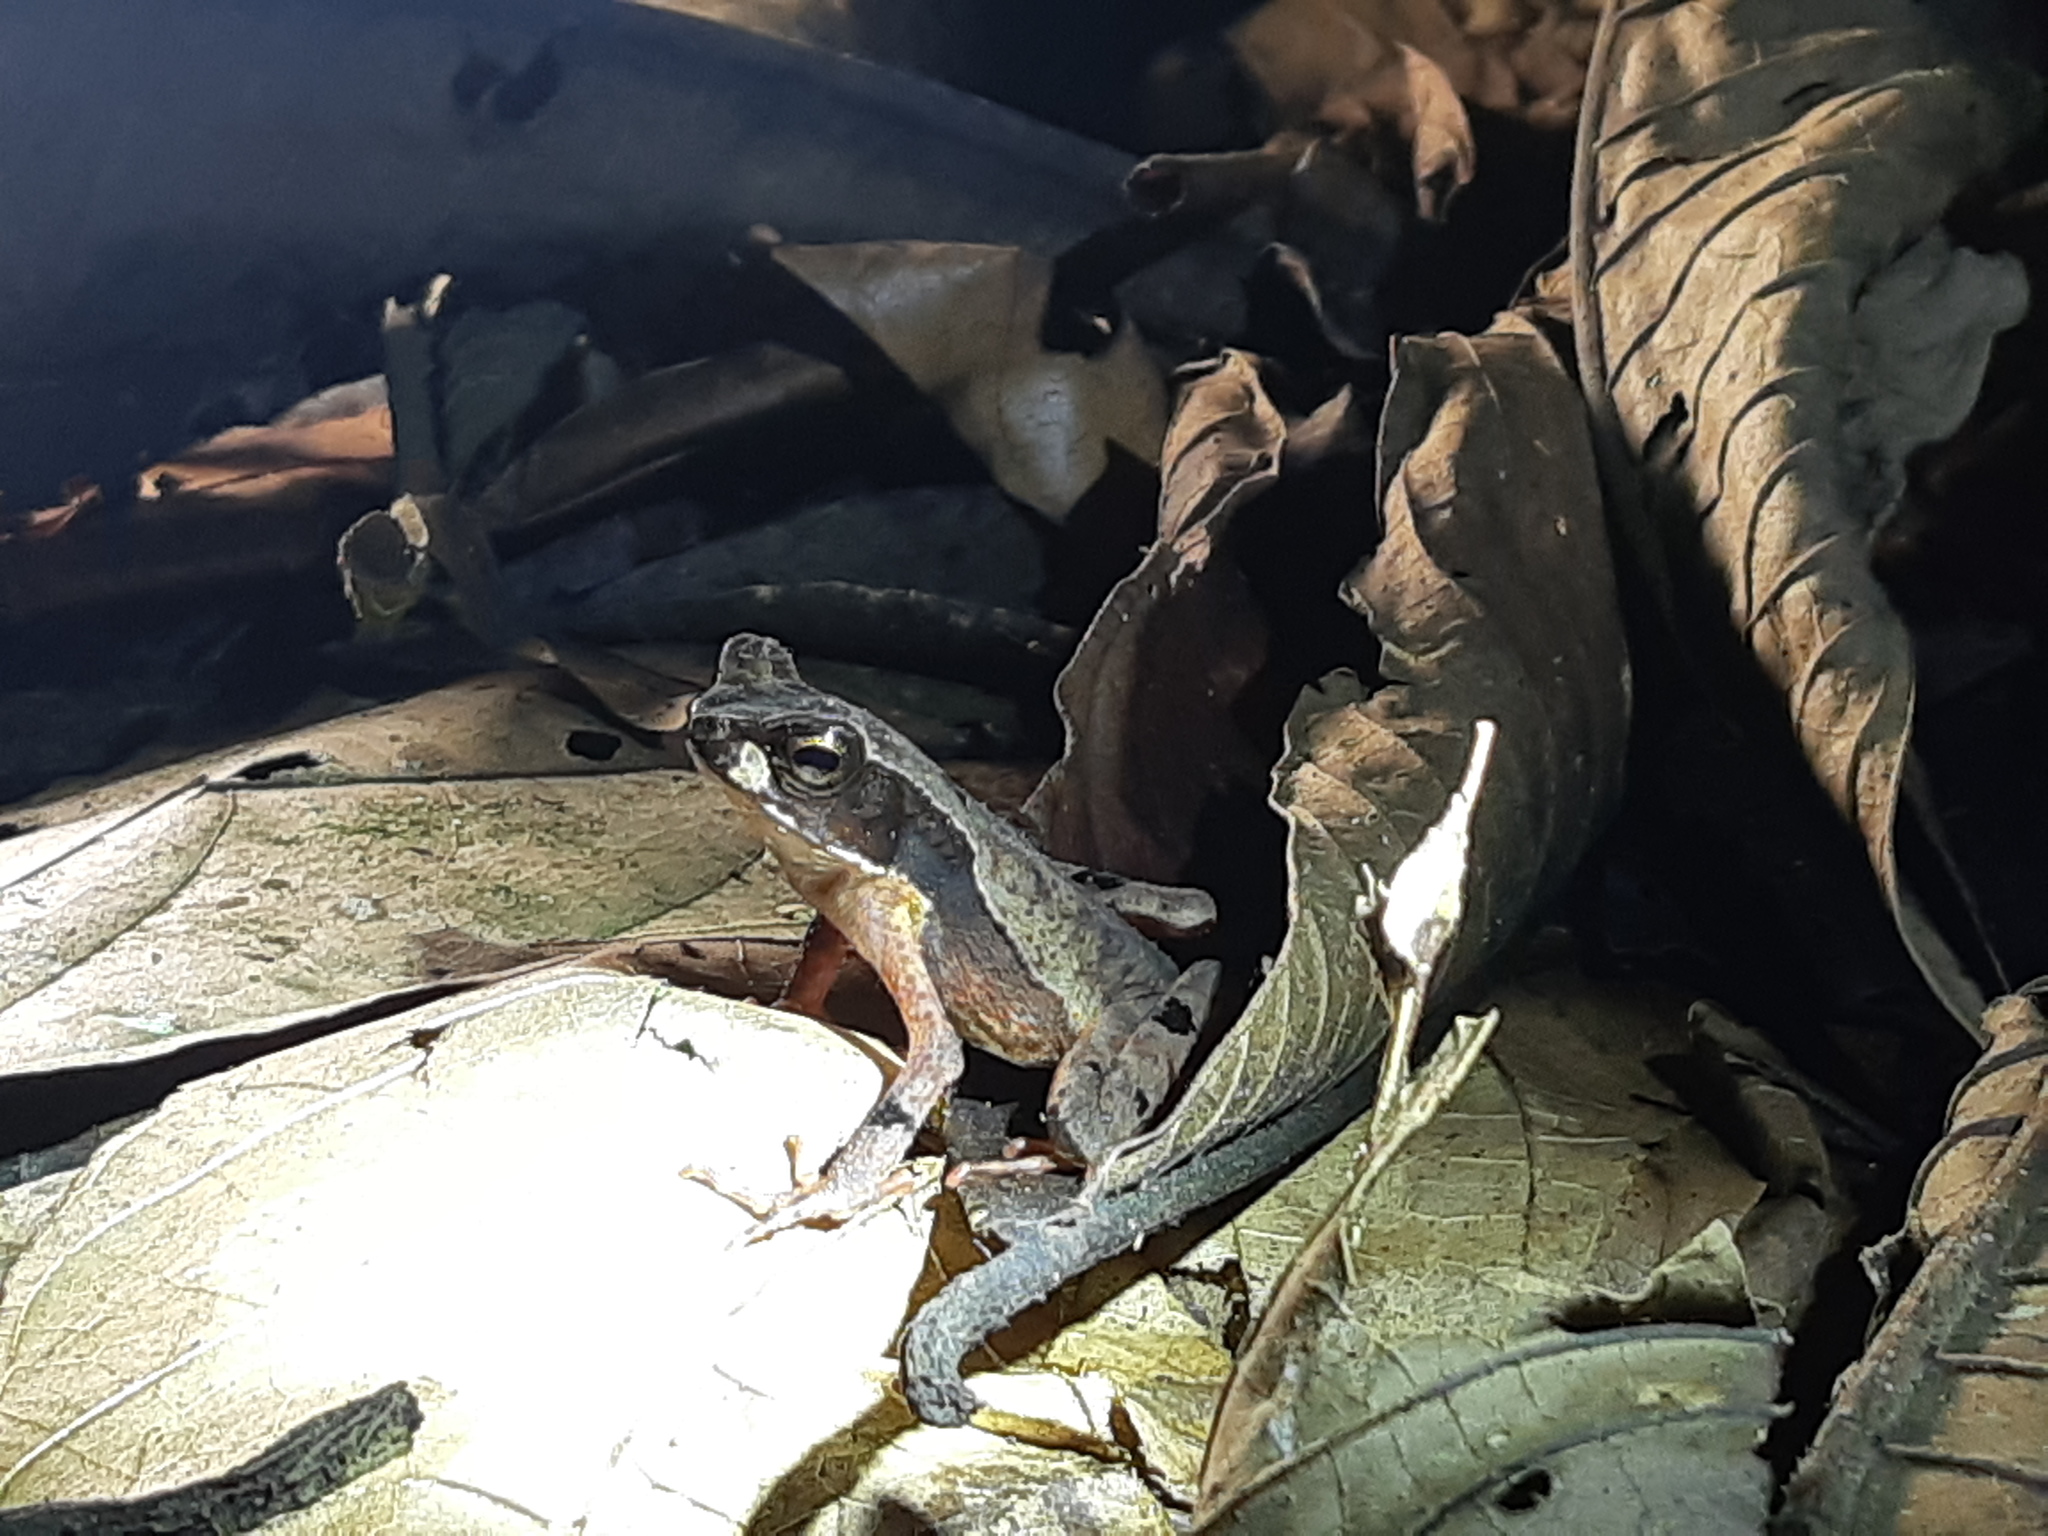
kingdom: Animalia
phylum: Chordata
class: Amphibia
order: Anura
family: Bufonidae
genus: Rhaebo
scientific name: Rhaebo haematiticus
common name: Truando toad
